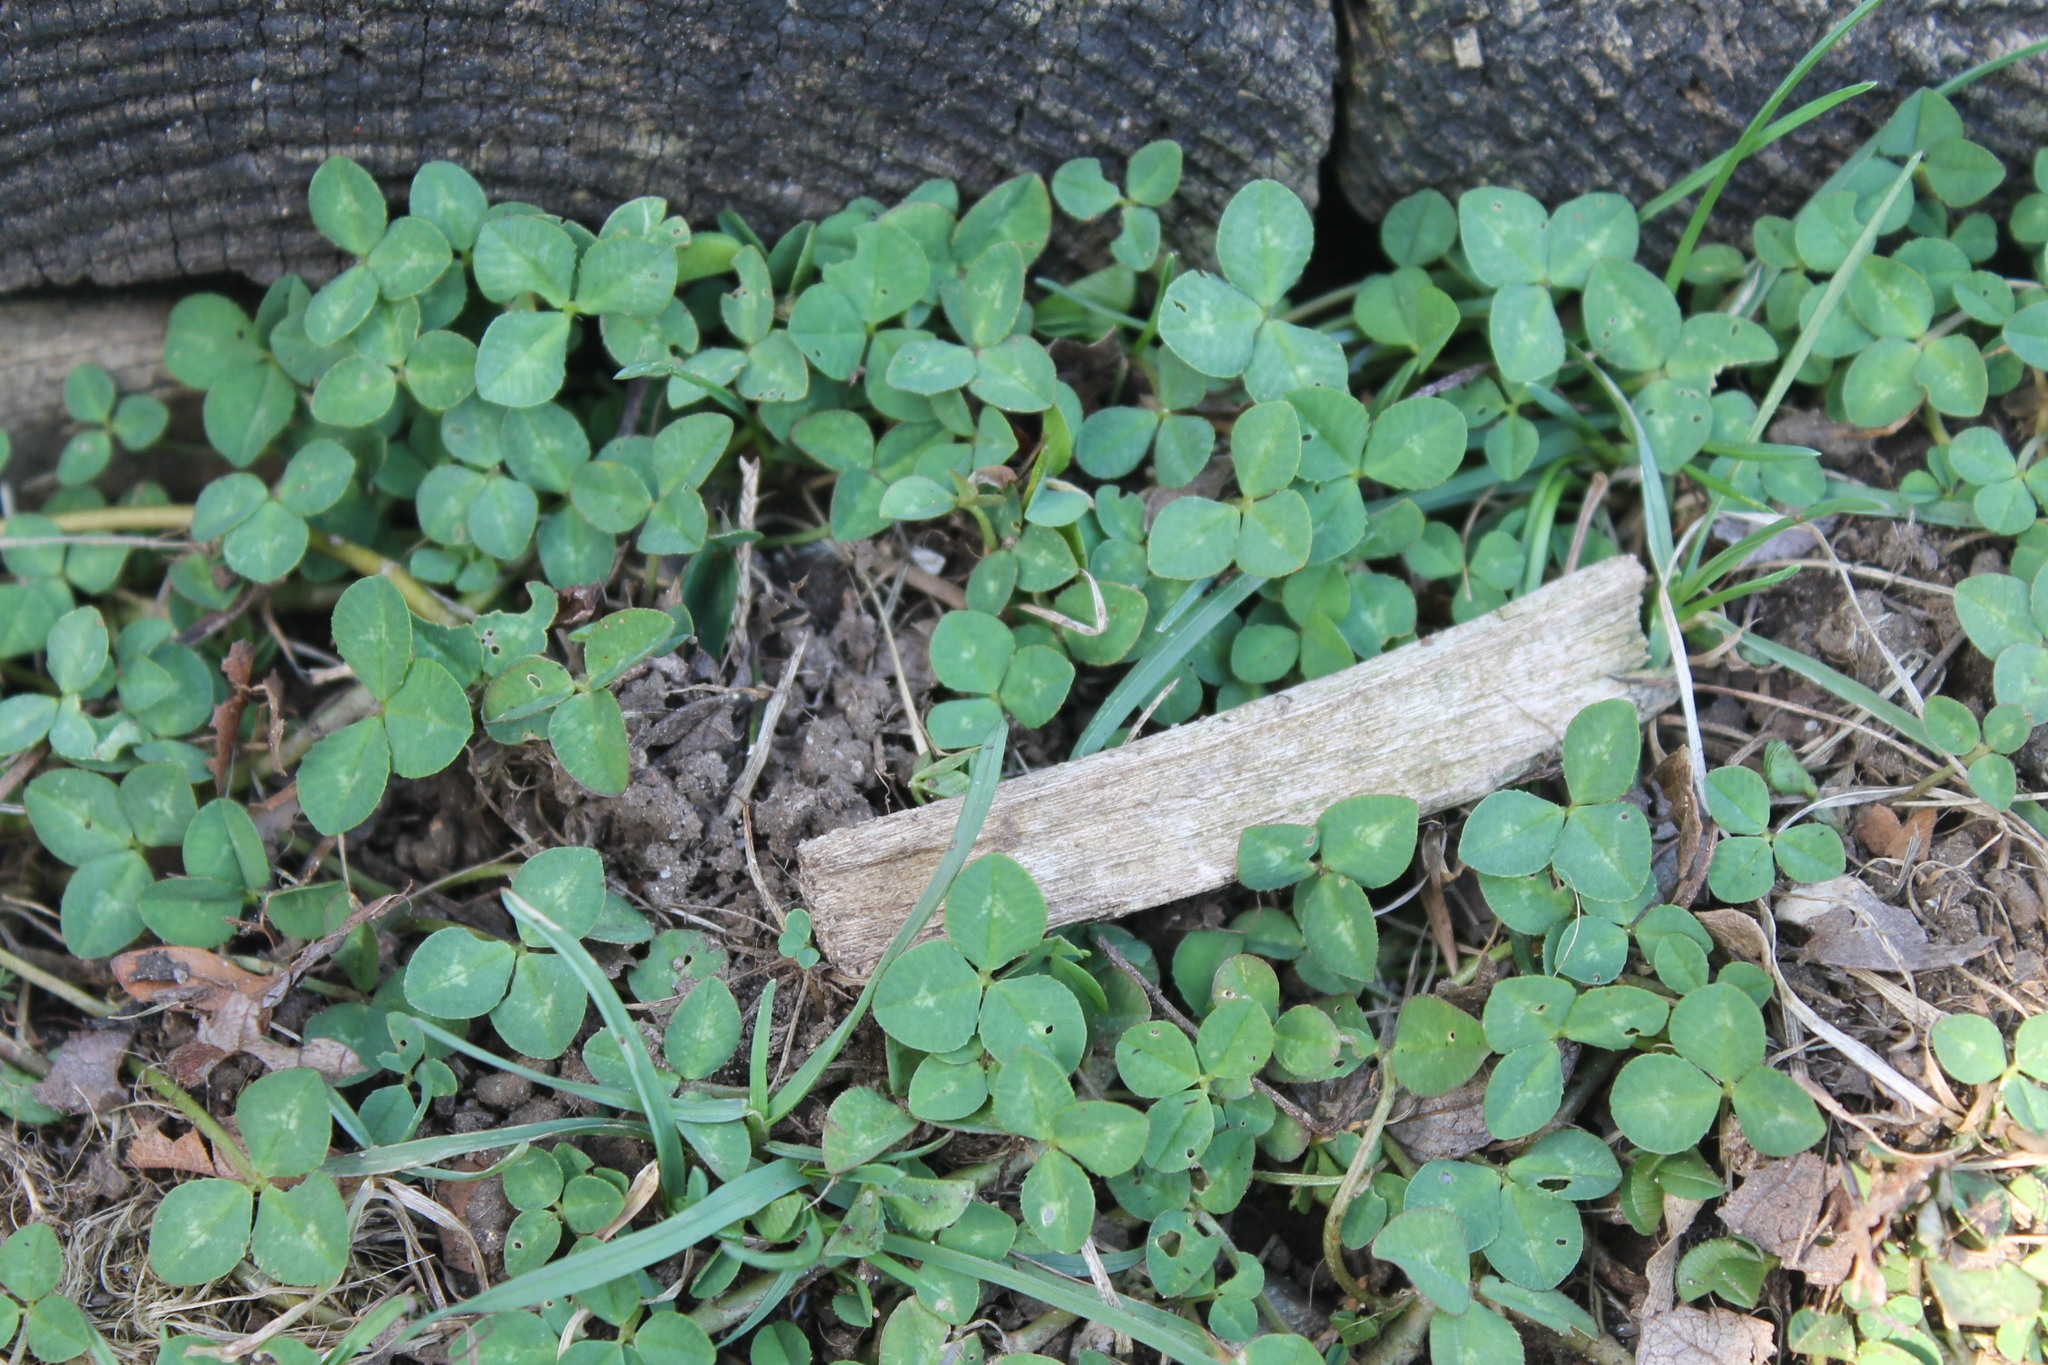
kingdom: Plantae
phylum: Tracheophyta
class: Magnoliopsida
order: Fabales
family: Fabaceae
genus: Trifolium
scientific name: Trifolium repens
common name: White clover
